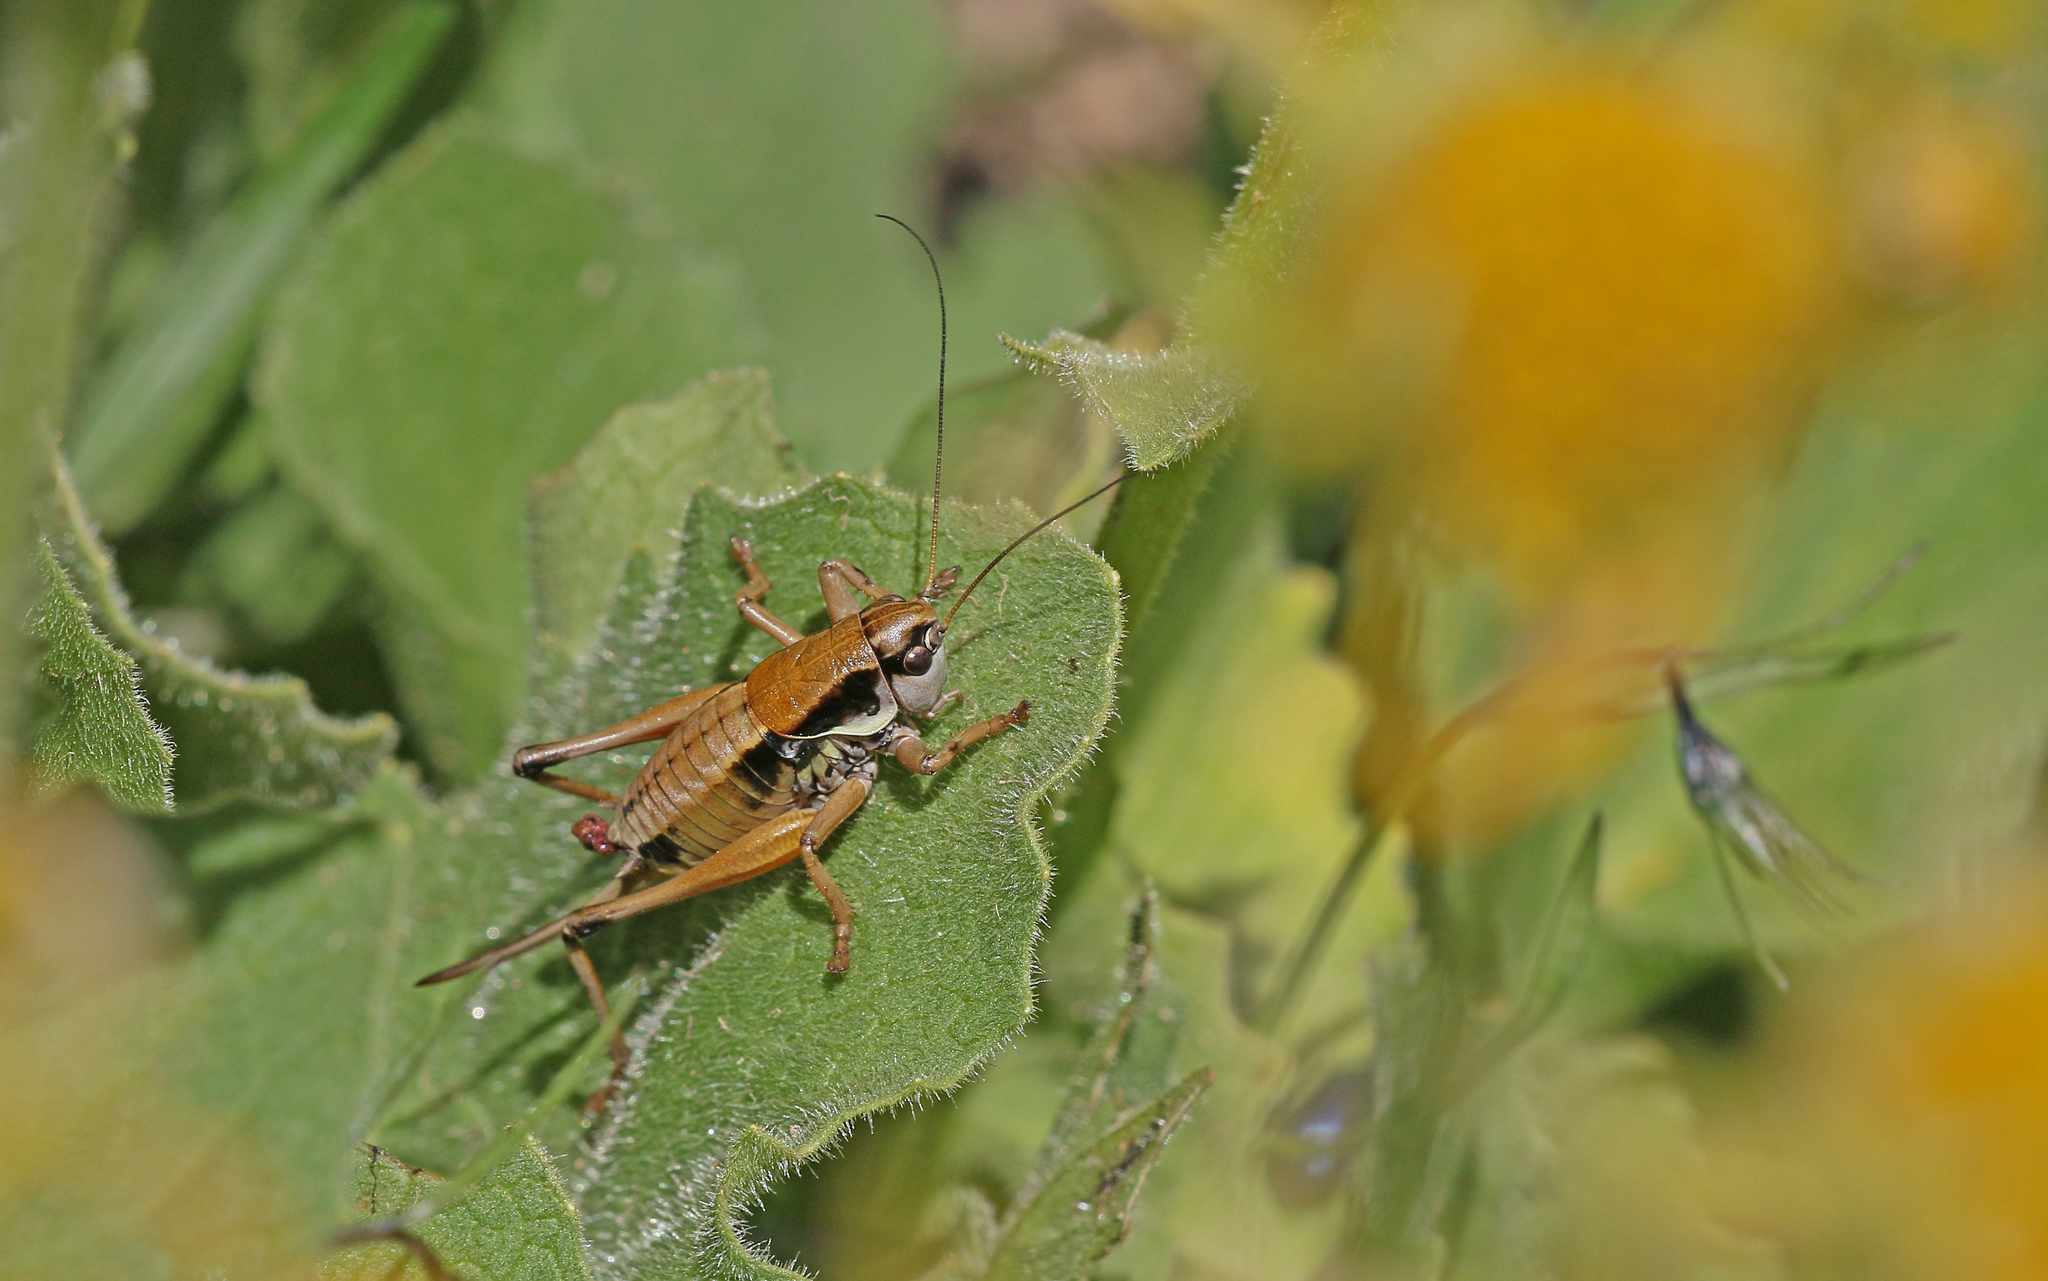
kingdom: Animalia
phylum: Arthropoda
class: Insecta
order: Orthoptera
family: Tettigoniidae
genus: Anonconotus
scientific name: Anonconotus occidentalis
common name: Western alpine bush-cricket
